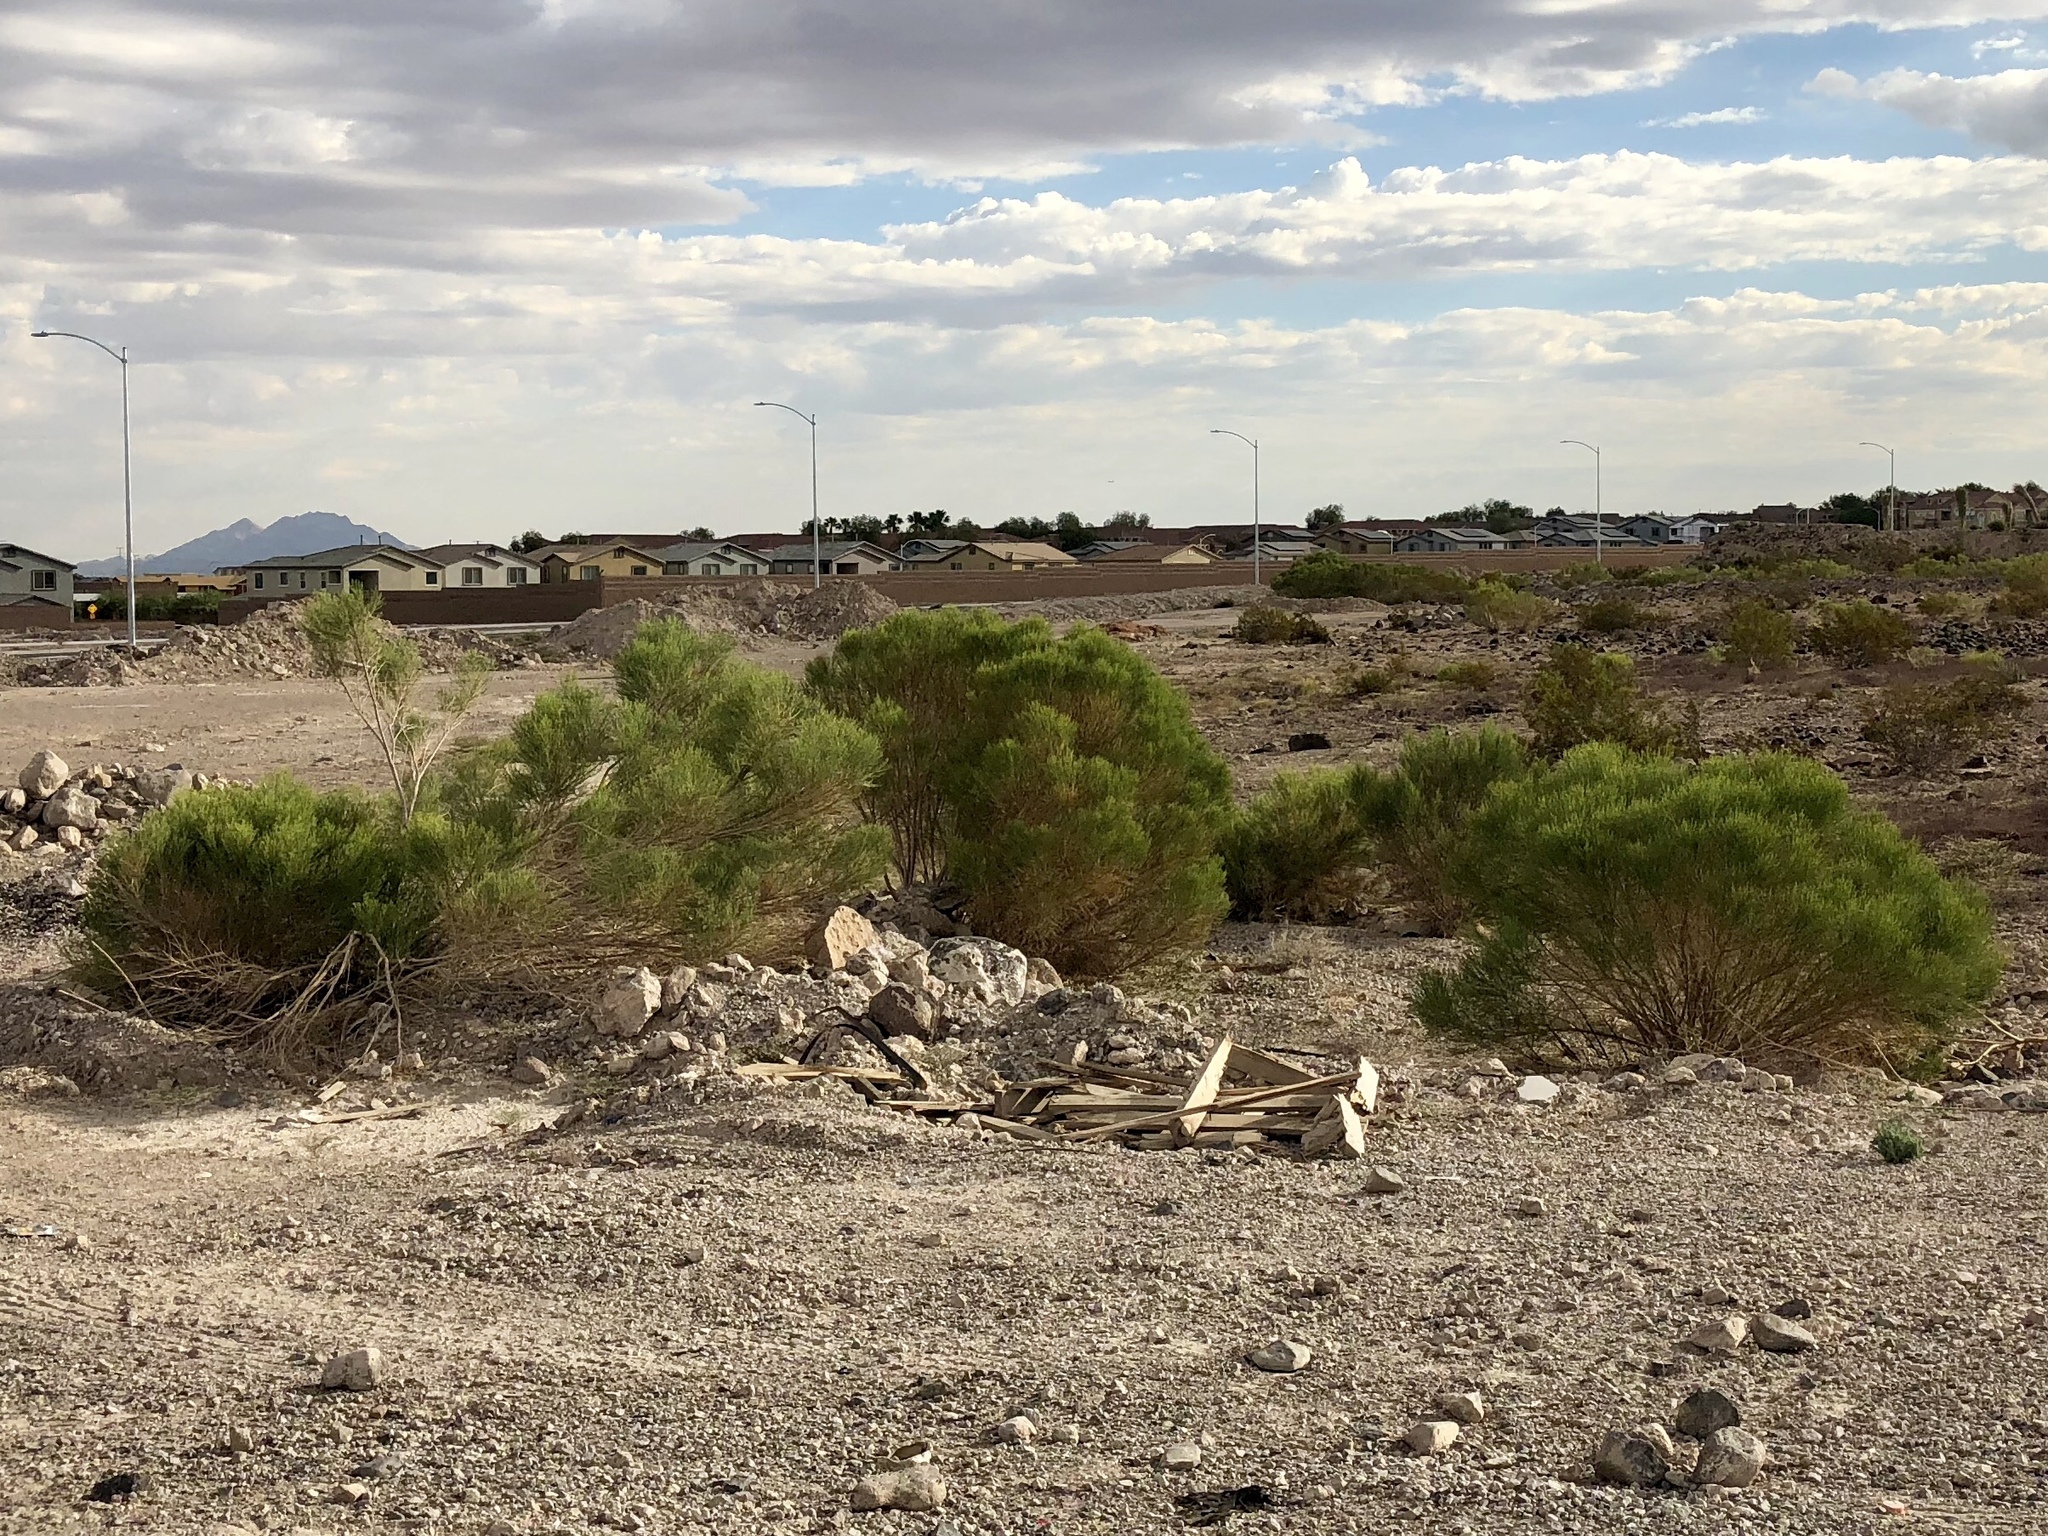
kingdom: Plantae
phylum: Tracheophyta
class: Magnoliopsida
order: Asterales
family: Asteraceae
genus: Baccharis
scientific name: Baccharis sarothroides
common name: Desert-broom
